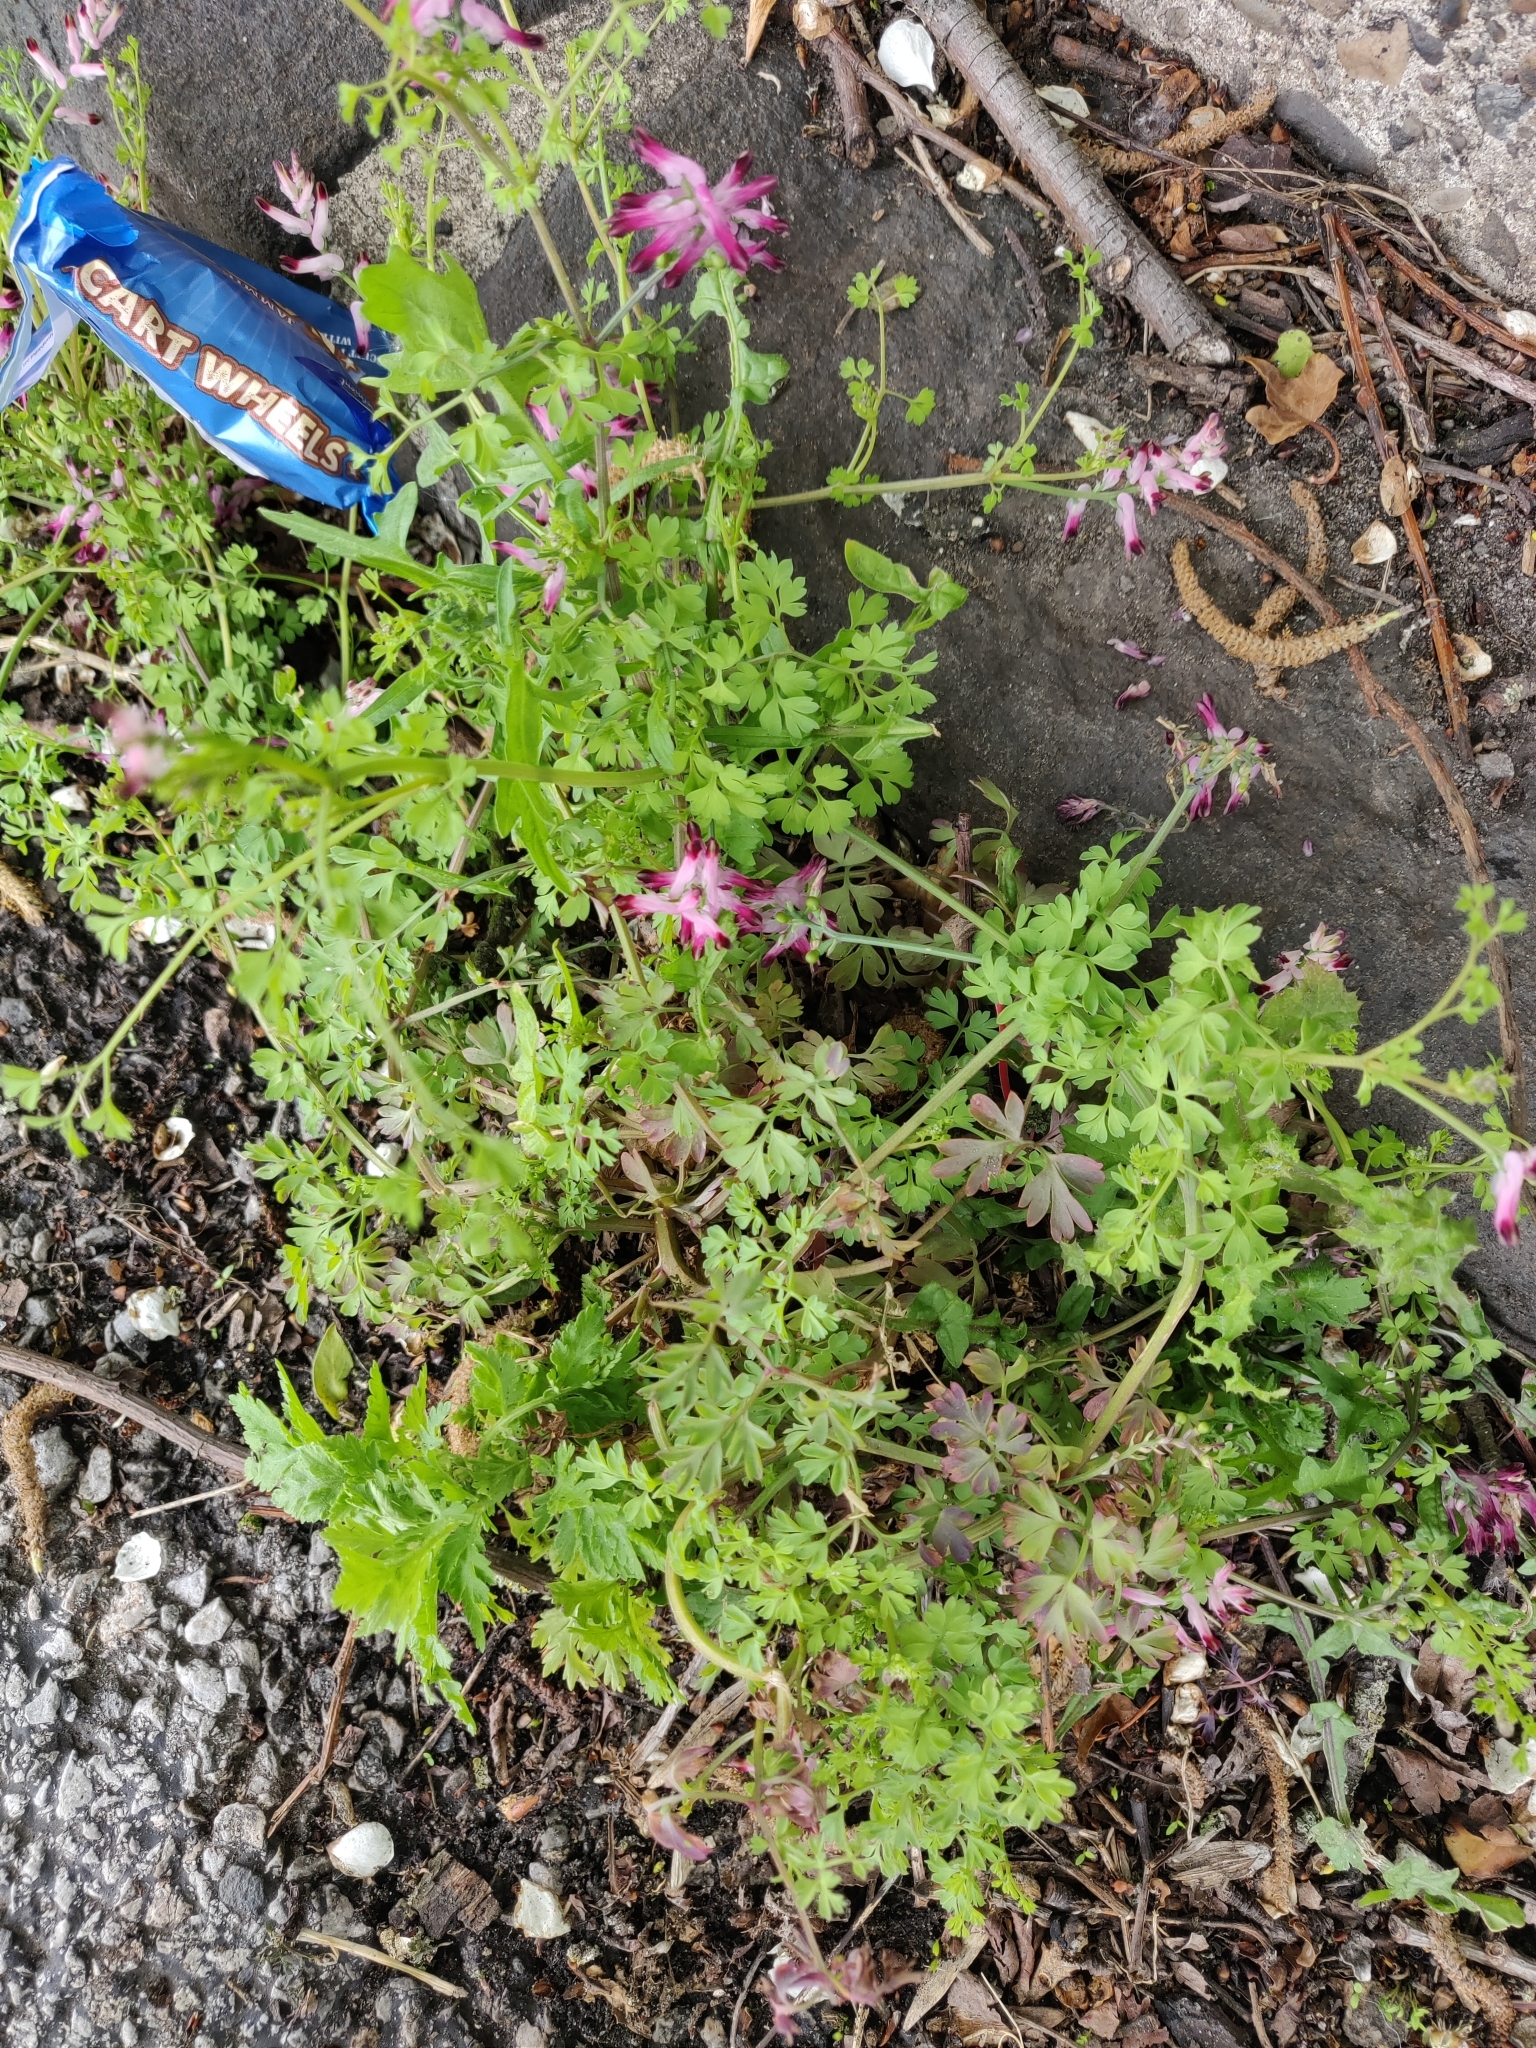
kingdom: Plantae
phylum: Tracheophyta
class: Magnoliopsida
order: Ranunculales
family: Papaveraceae
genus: Fumaria
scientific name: Fumaria muralis
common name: Common ramping-fumitory
